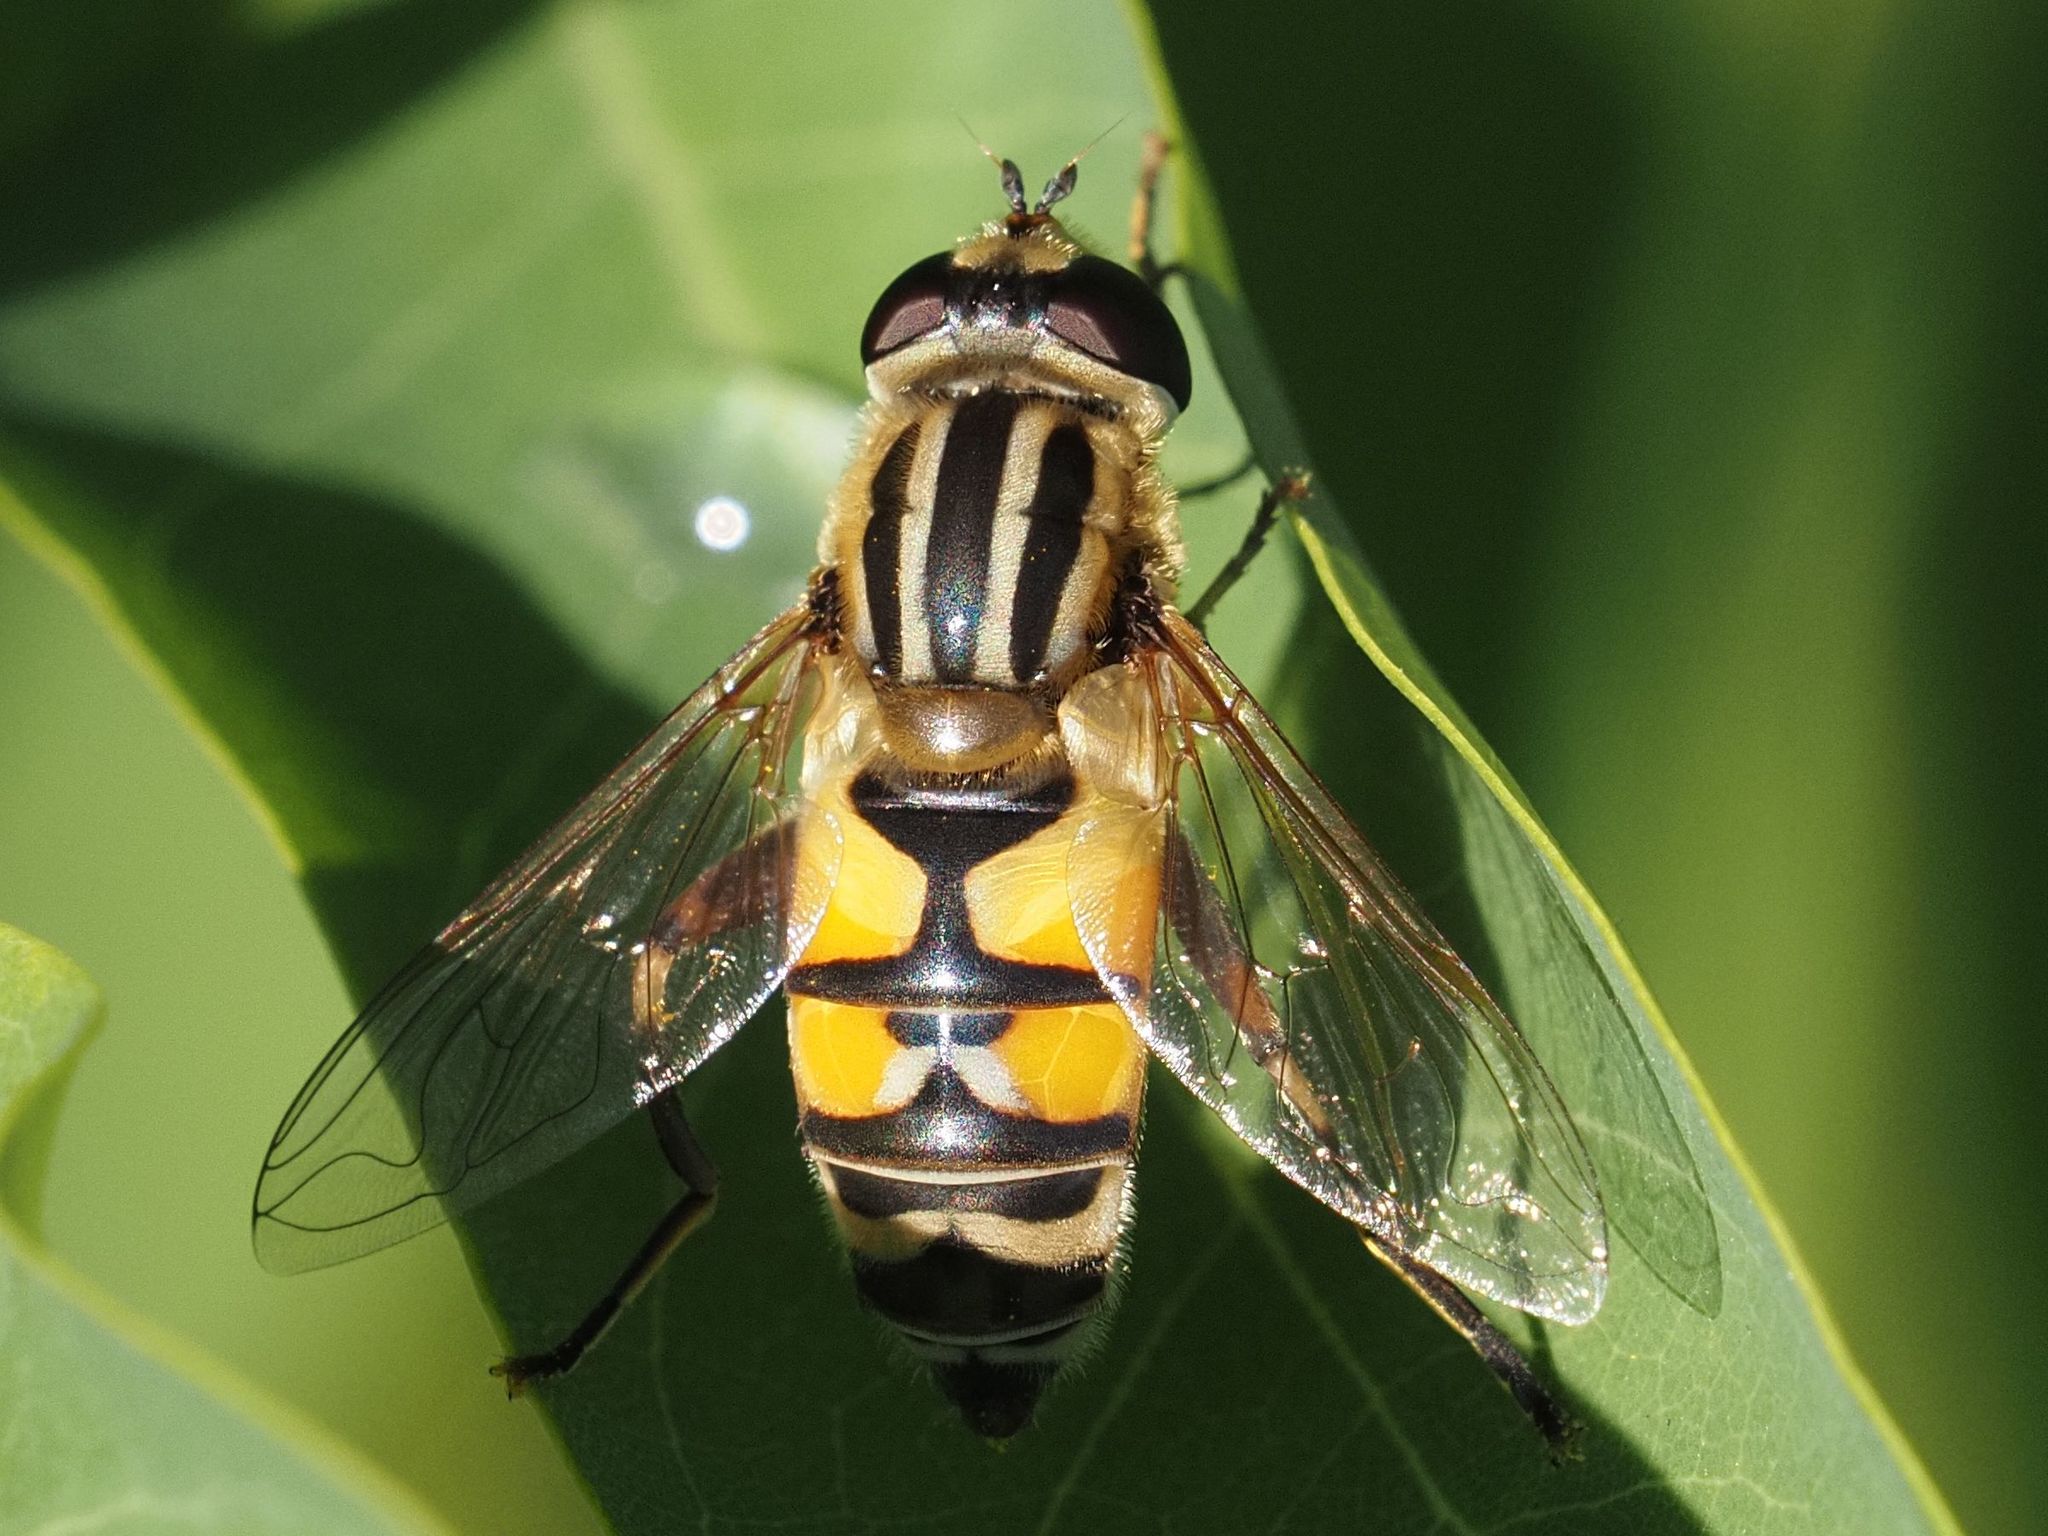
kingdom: Animalia
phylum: Arthropoda
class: Insecta
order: Diptera
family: Syrphidae
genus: Helophilus
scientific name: Helophilus trivittatus
